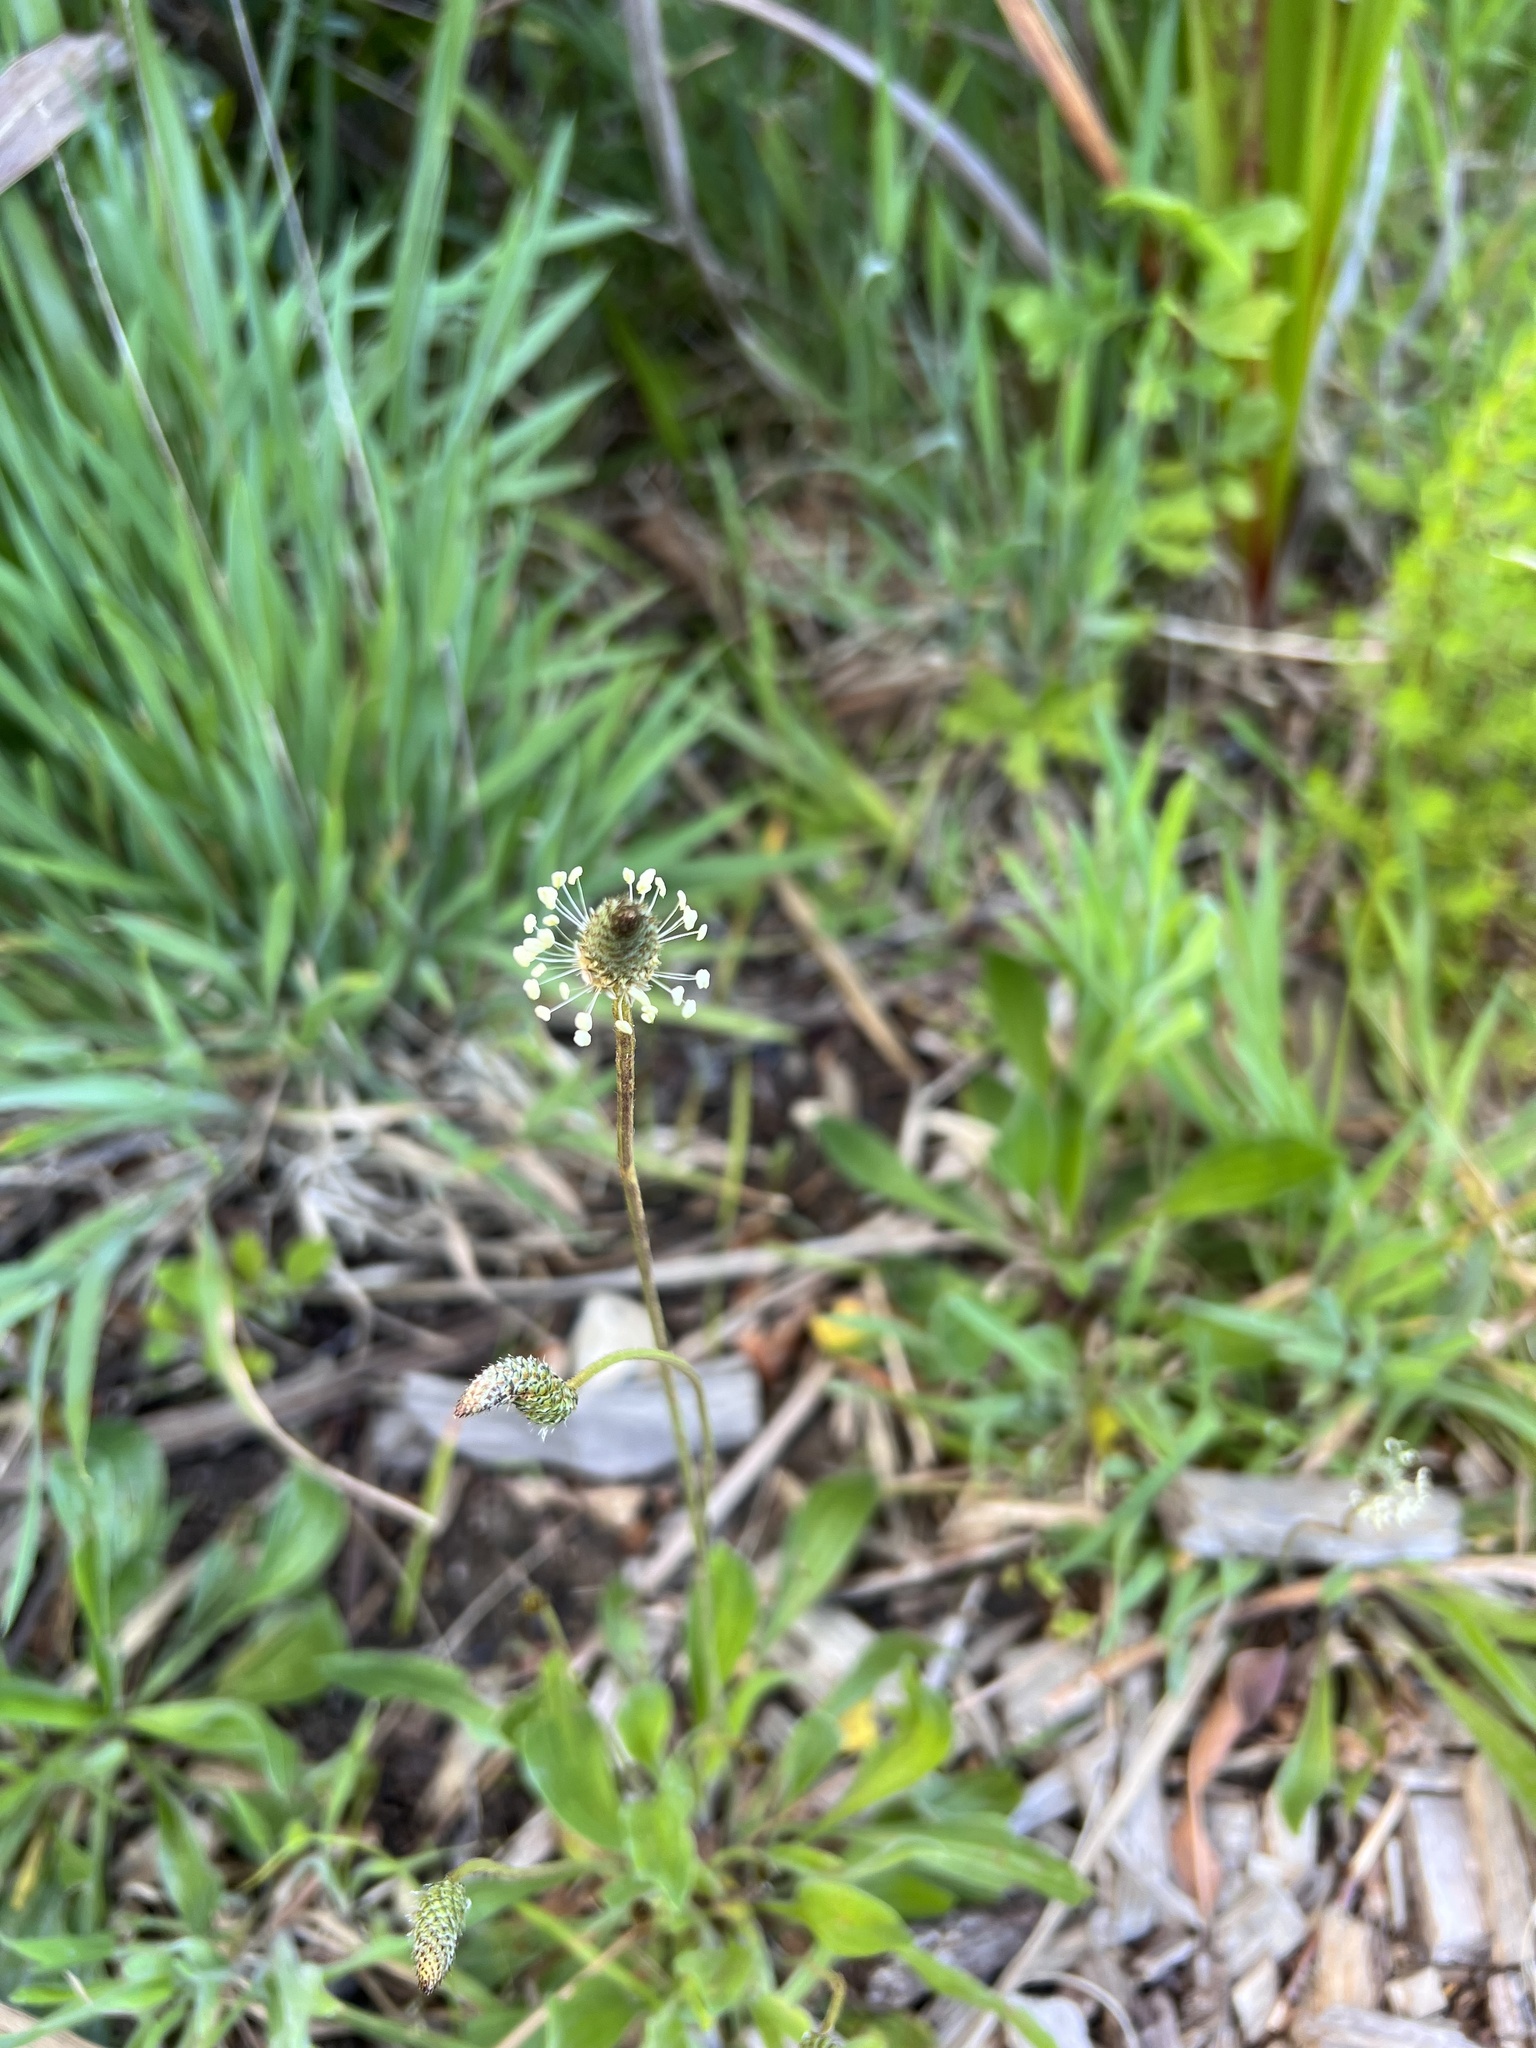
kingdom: Plantae
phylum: Tracheophyta
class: Magnoliopsida
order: Lamiales
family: Plantaginaceae
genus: Plantago
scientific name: Plantago lanceolata
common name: Ribwort plantain
